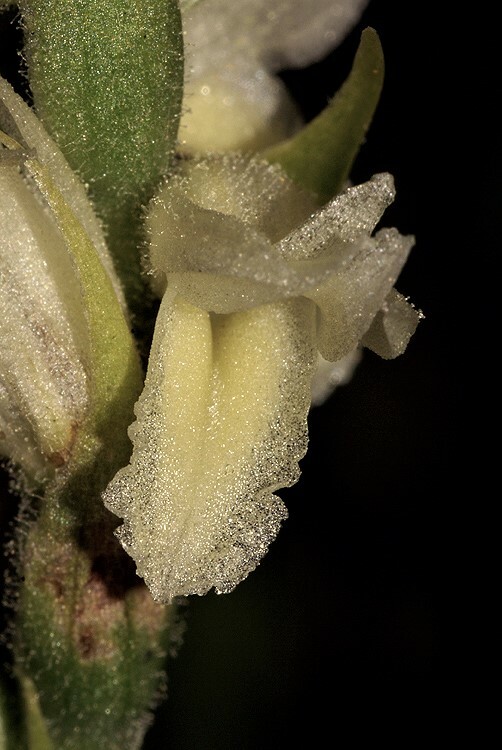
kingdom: Plantae
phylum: Tracheophyta
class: Liliopsida
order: Asparagales
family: Orchidaceae
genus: Spiranthes
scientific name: Spiranthes magnicamporum
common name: Great plains ladies'-tresses
